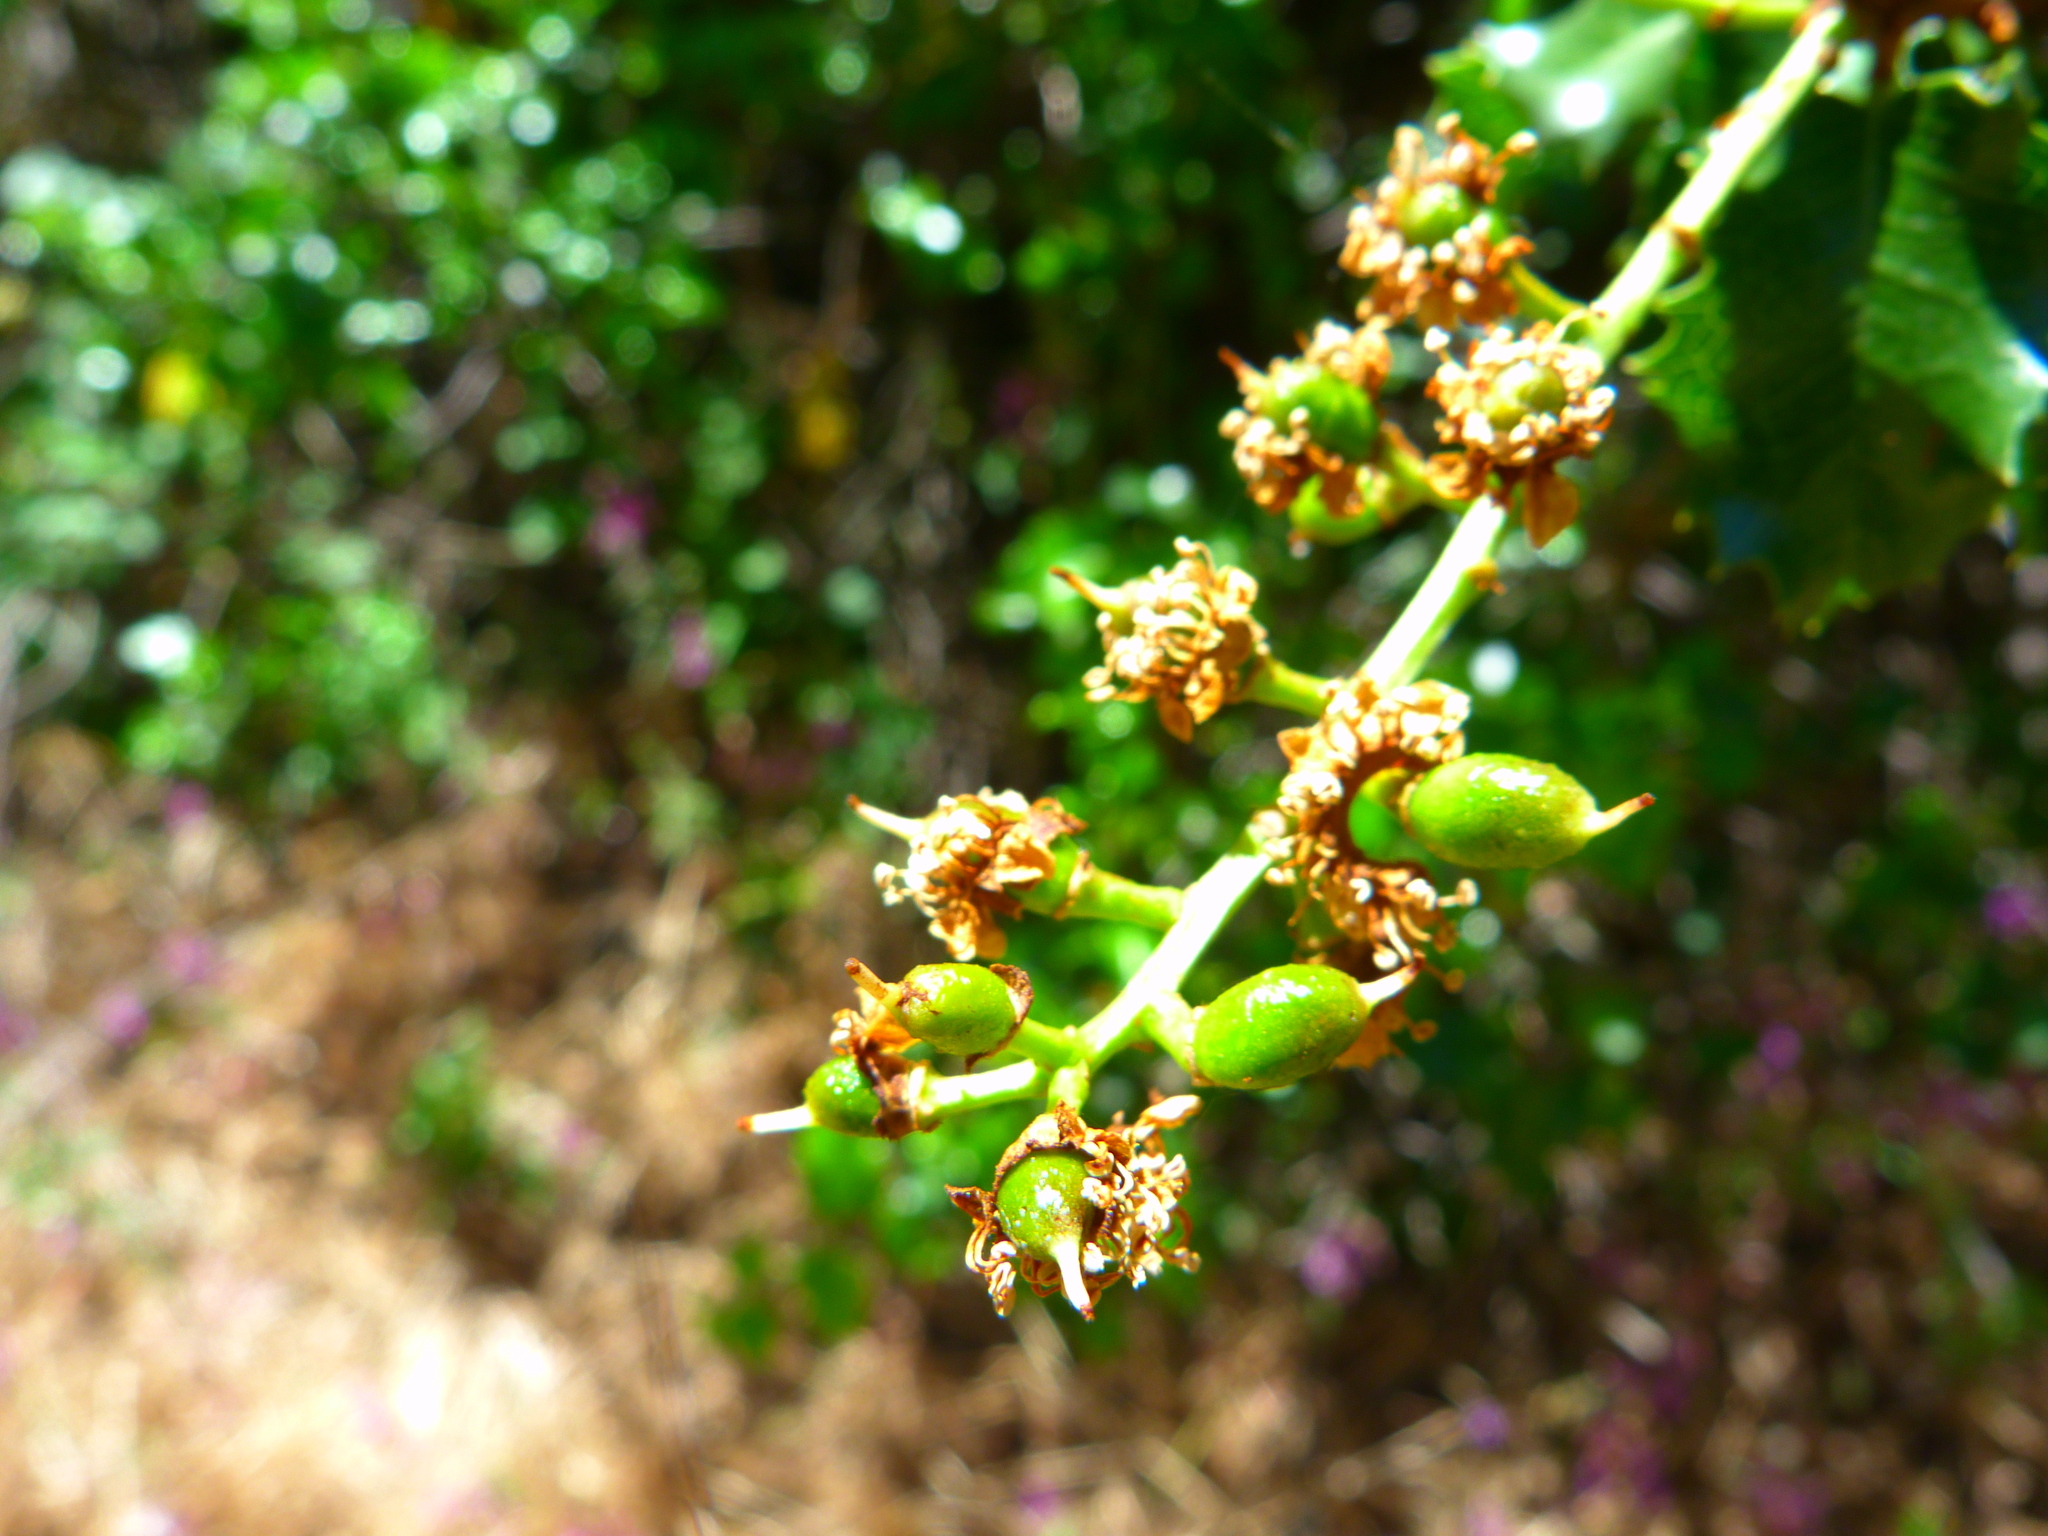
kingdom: Plantae
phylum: Tracheophyta
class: Magnoliopsida
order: Rosales
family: Rosaceae
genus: Prunus
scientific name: Prunus ilicifolia
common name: Hollyleaf cherry
